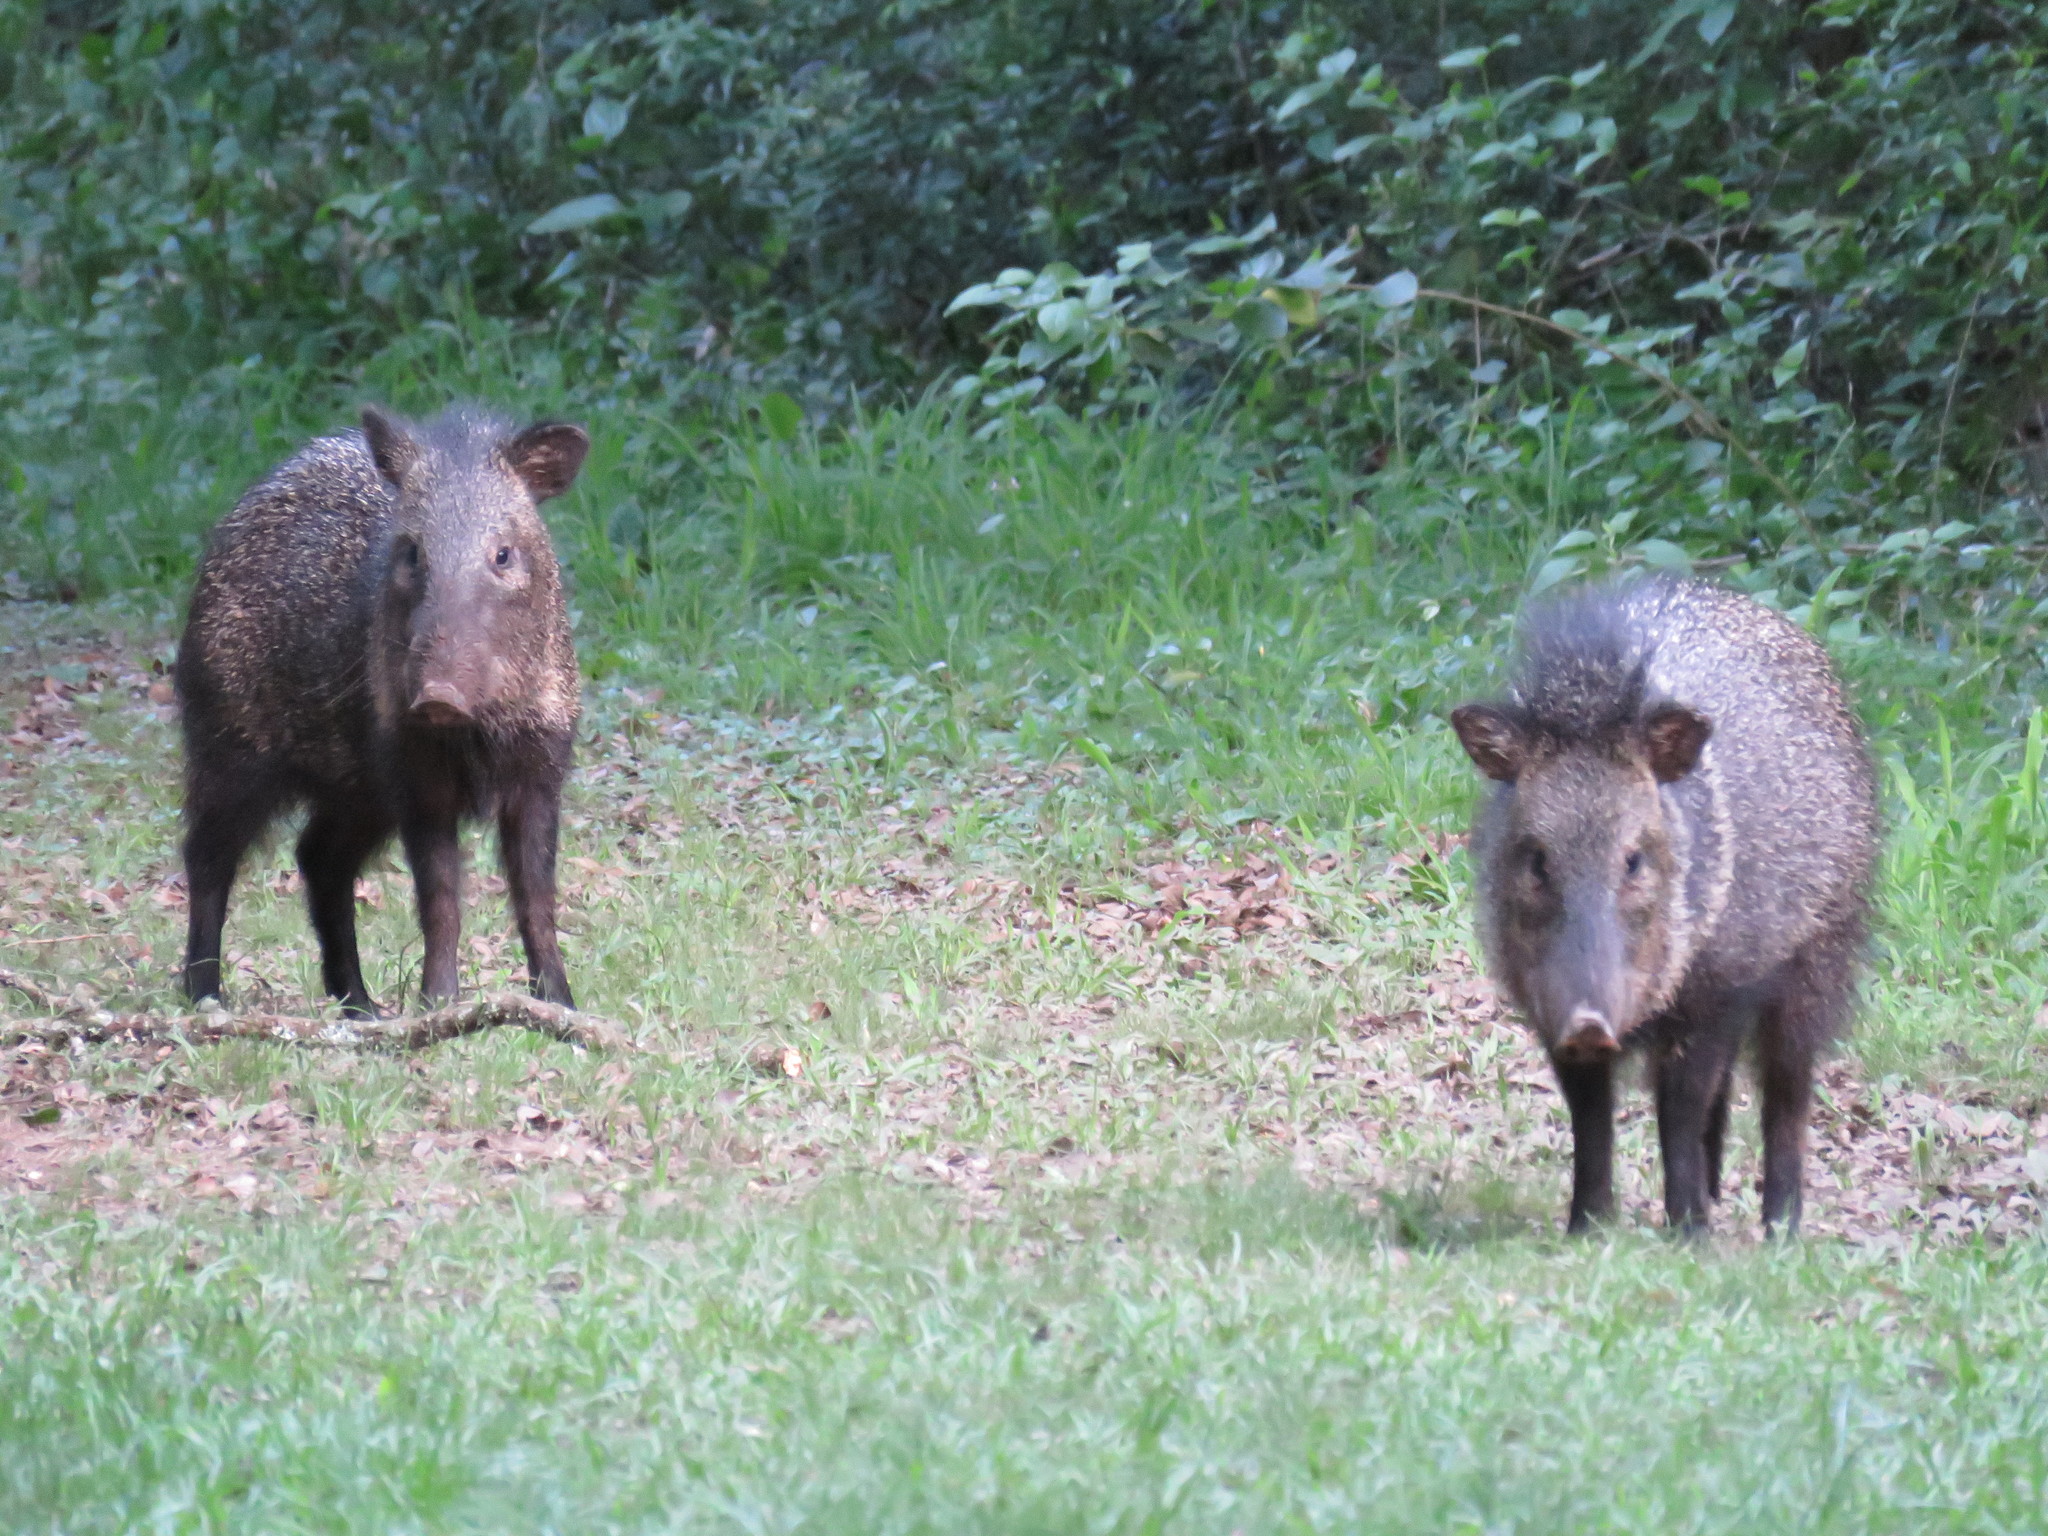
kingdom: Animalia
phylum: Chordata
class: Mammalia
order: Artiodactyla
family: Tayassuidae
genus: Pecari
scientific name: Pecari tajacu
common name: Collared peccary
